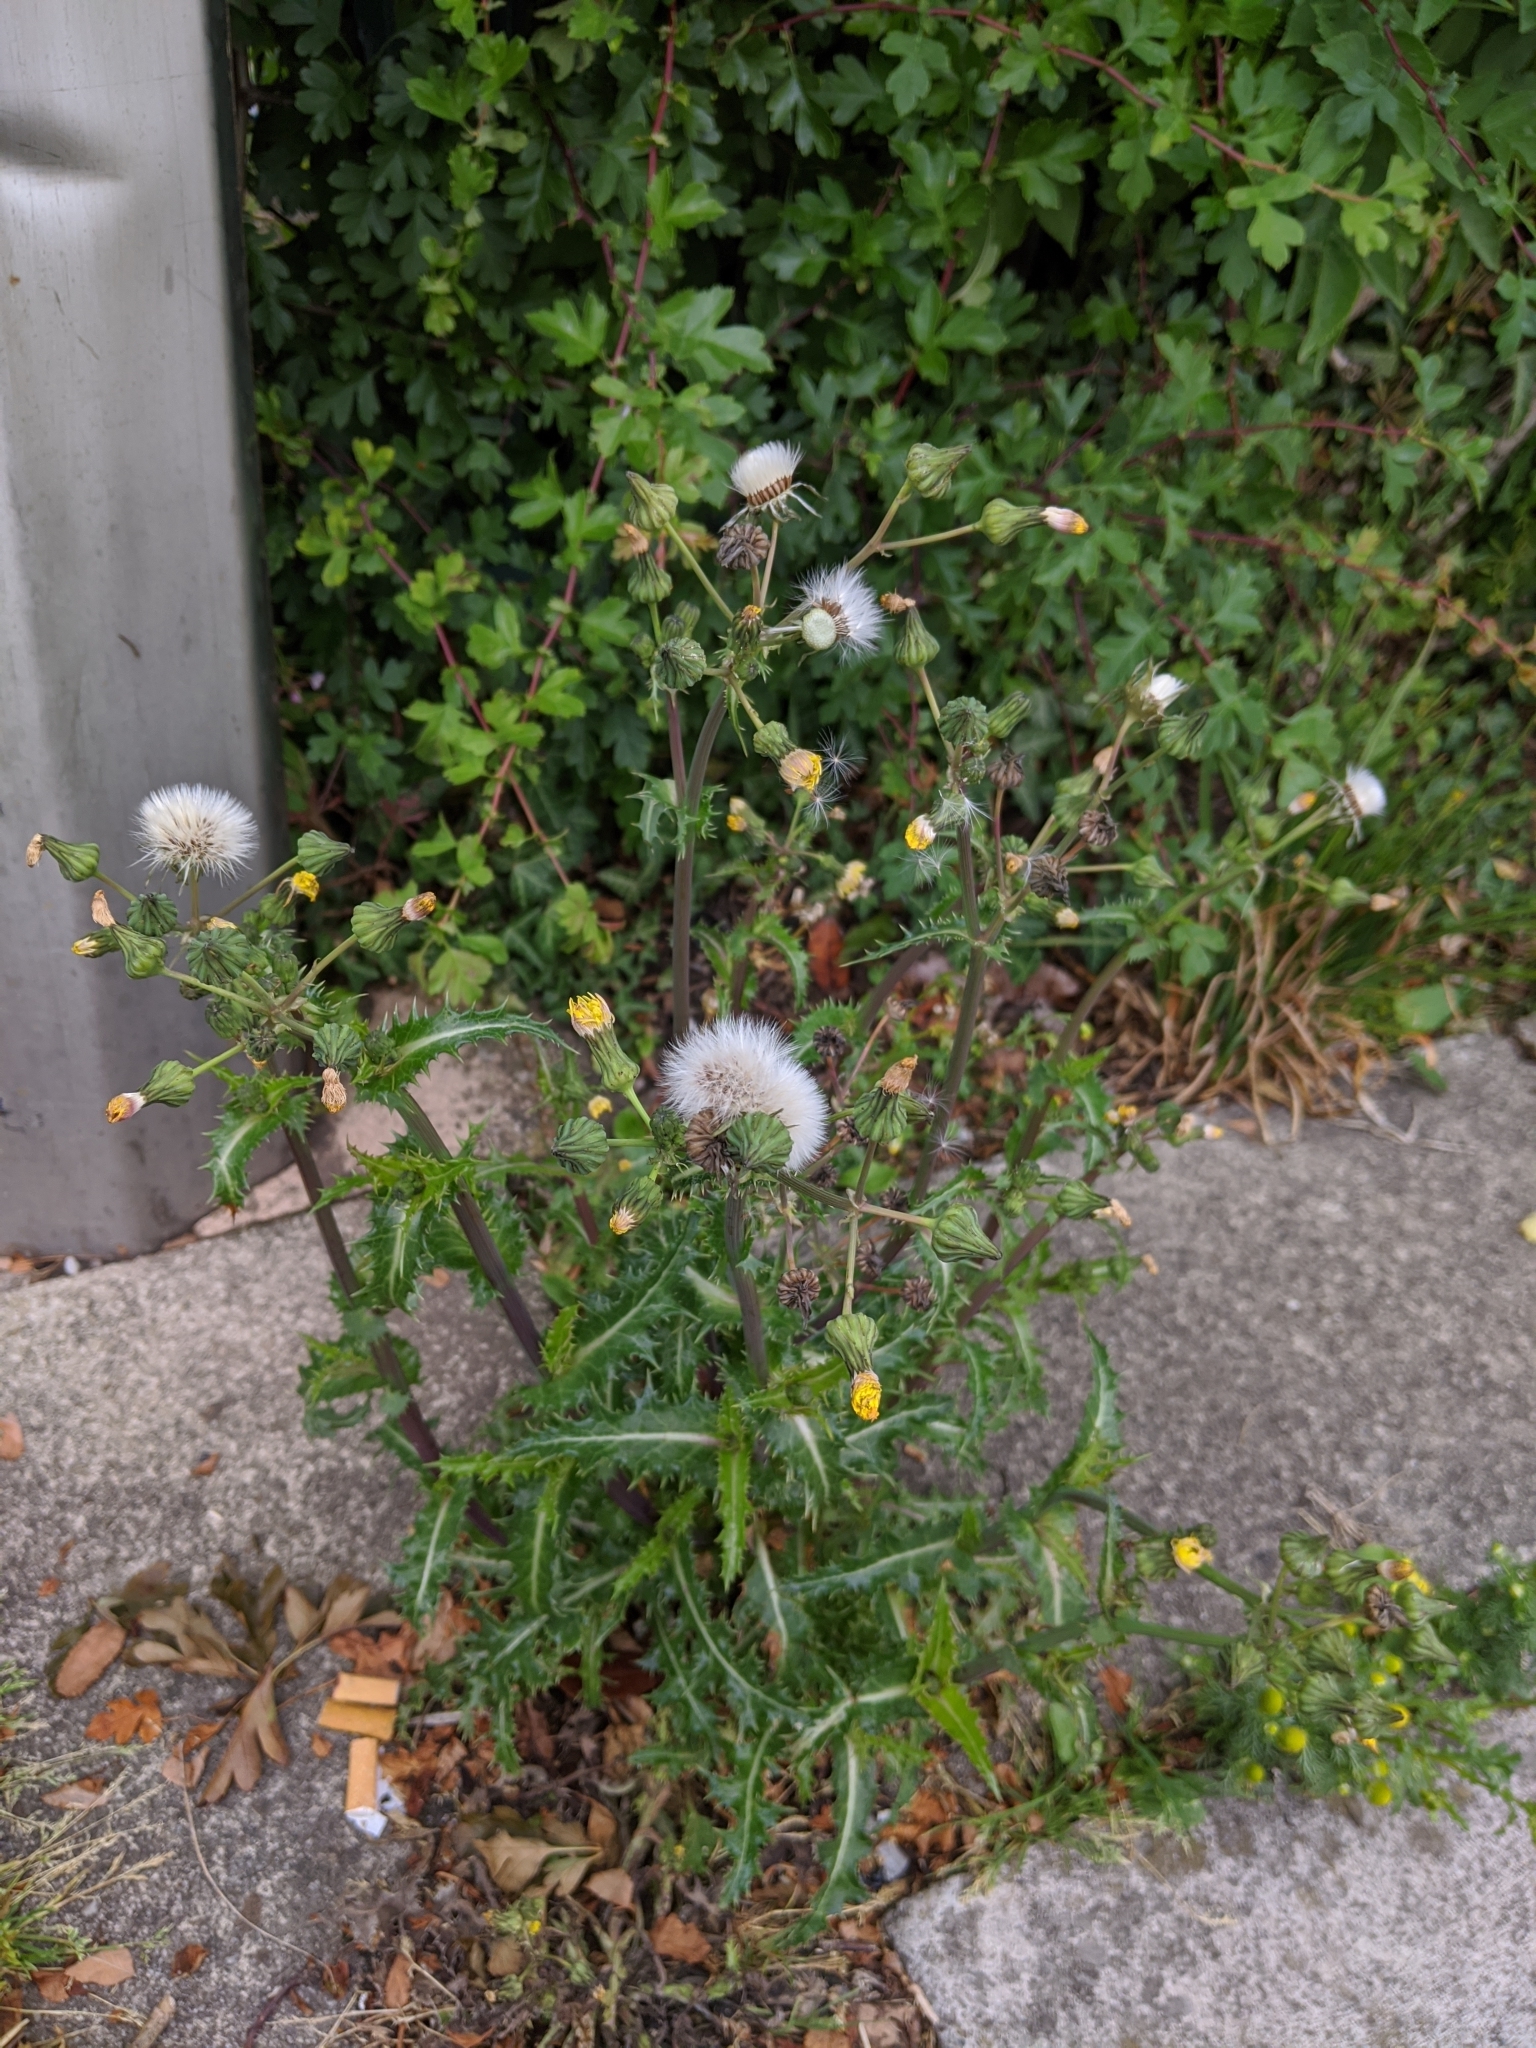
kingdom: Plantae
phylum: Tracheophyta
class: Magnoliopsida
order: Asterales
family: Asteraceae
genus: Sonchus
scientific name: Sonchus asper
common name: Prickly sow-thistle
